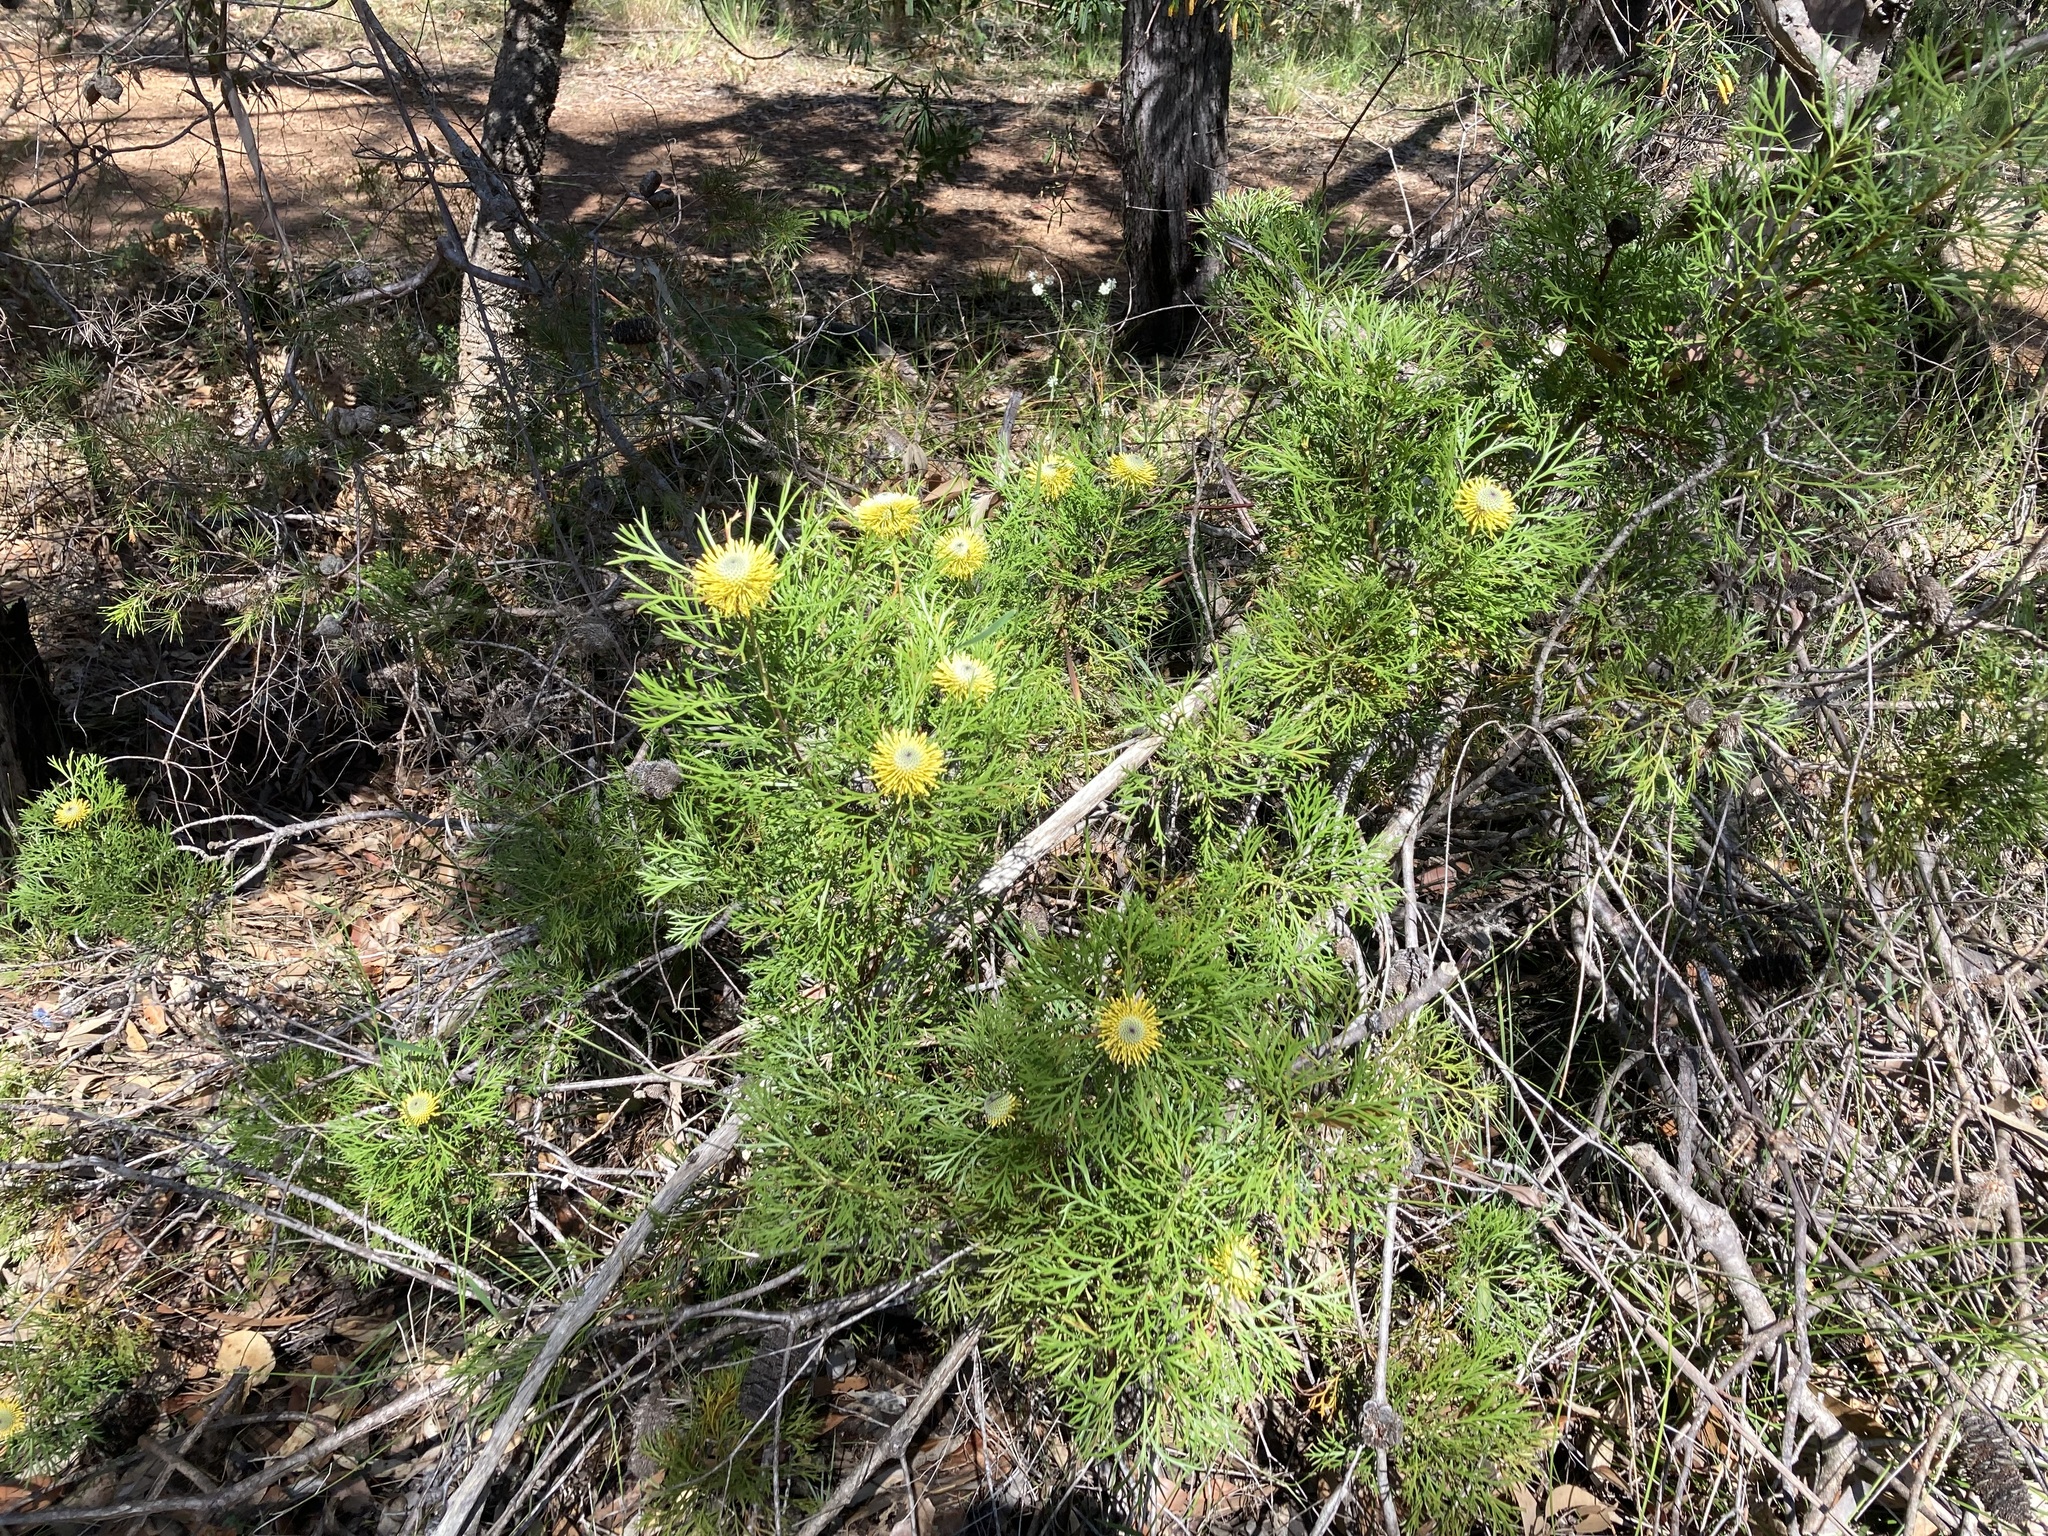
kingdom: Plantae
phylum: Tracheophyta
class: Magnoliopsida
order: Proteales
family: Proteaceae
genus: Isopogon
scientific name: Isopogon anemonifolius
